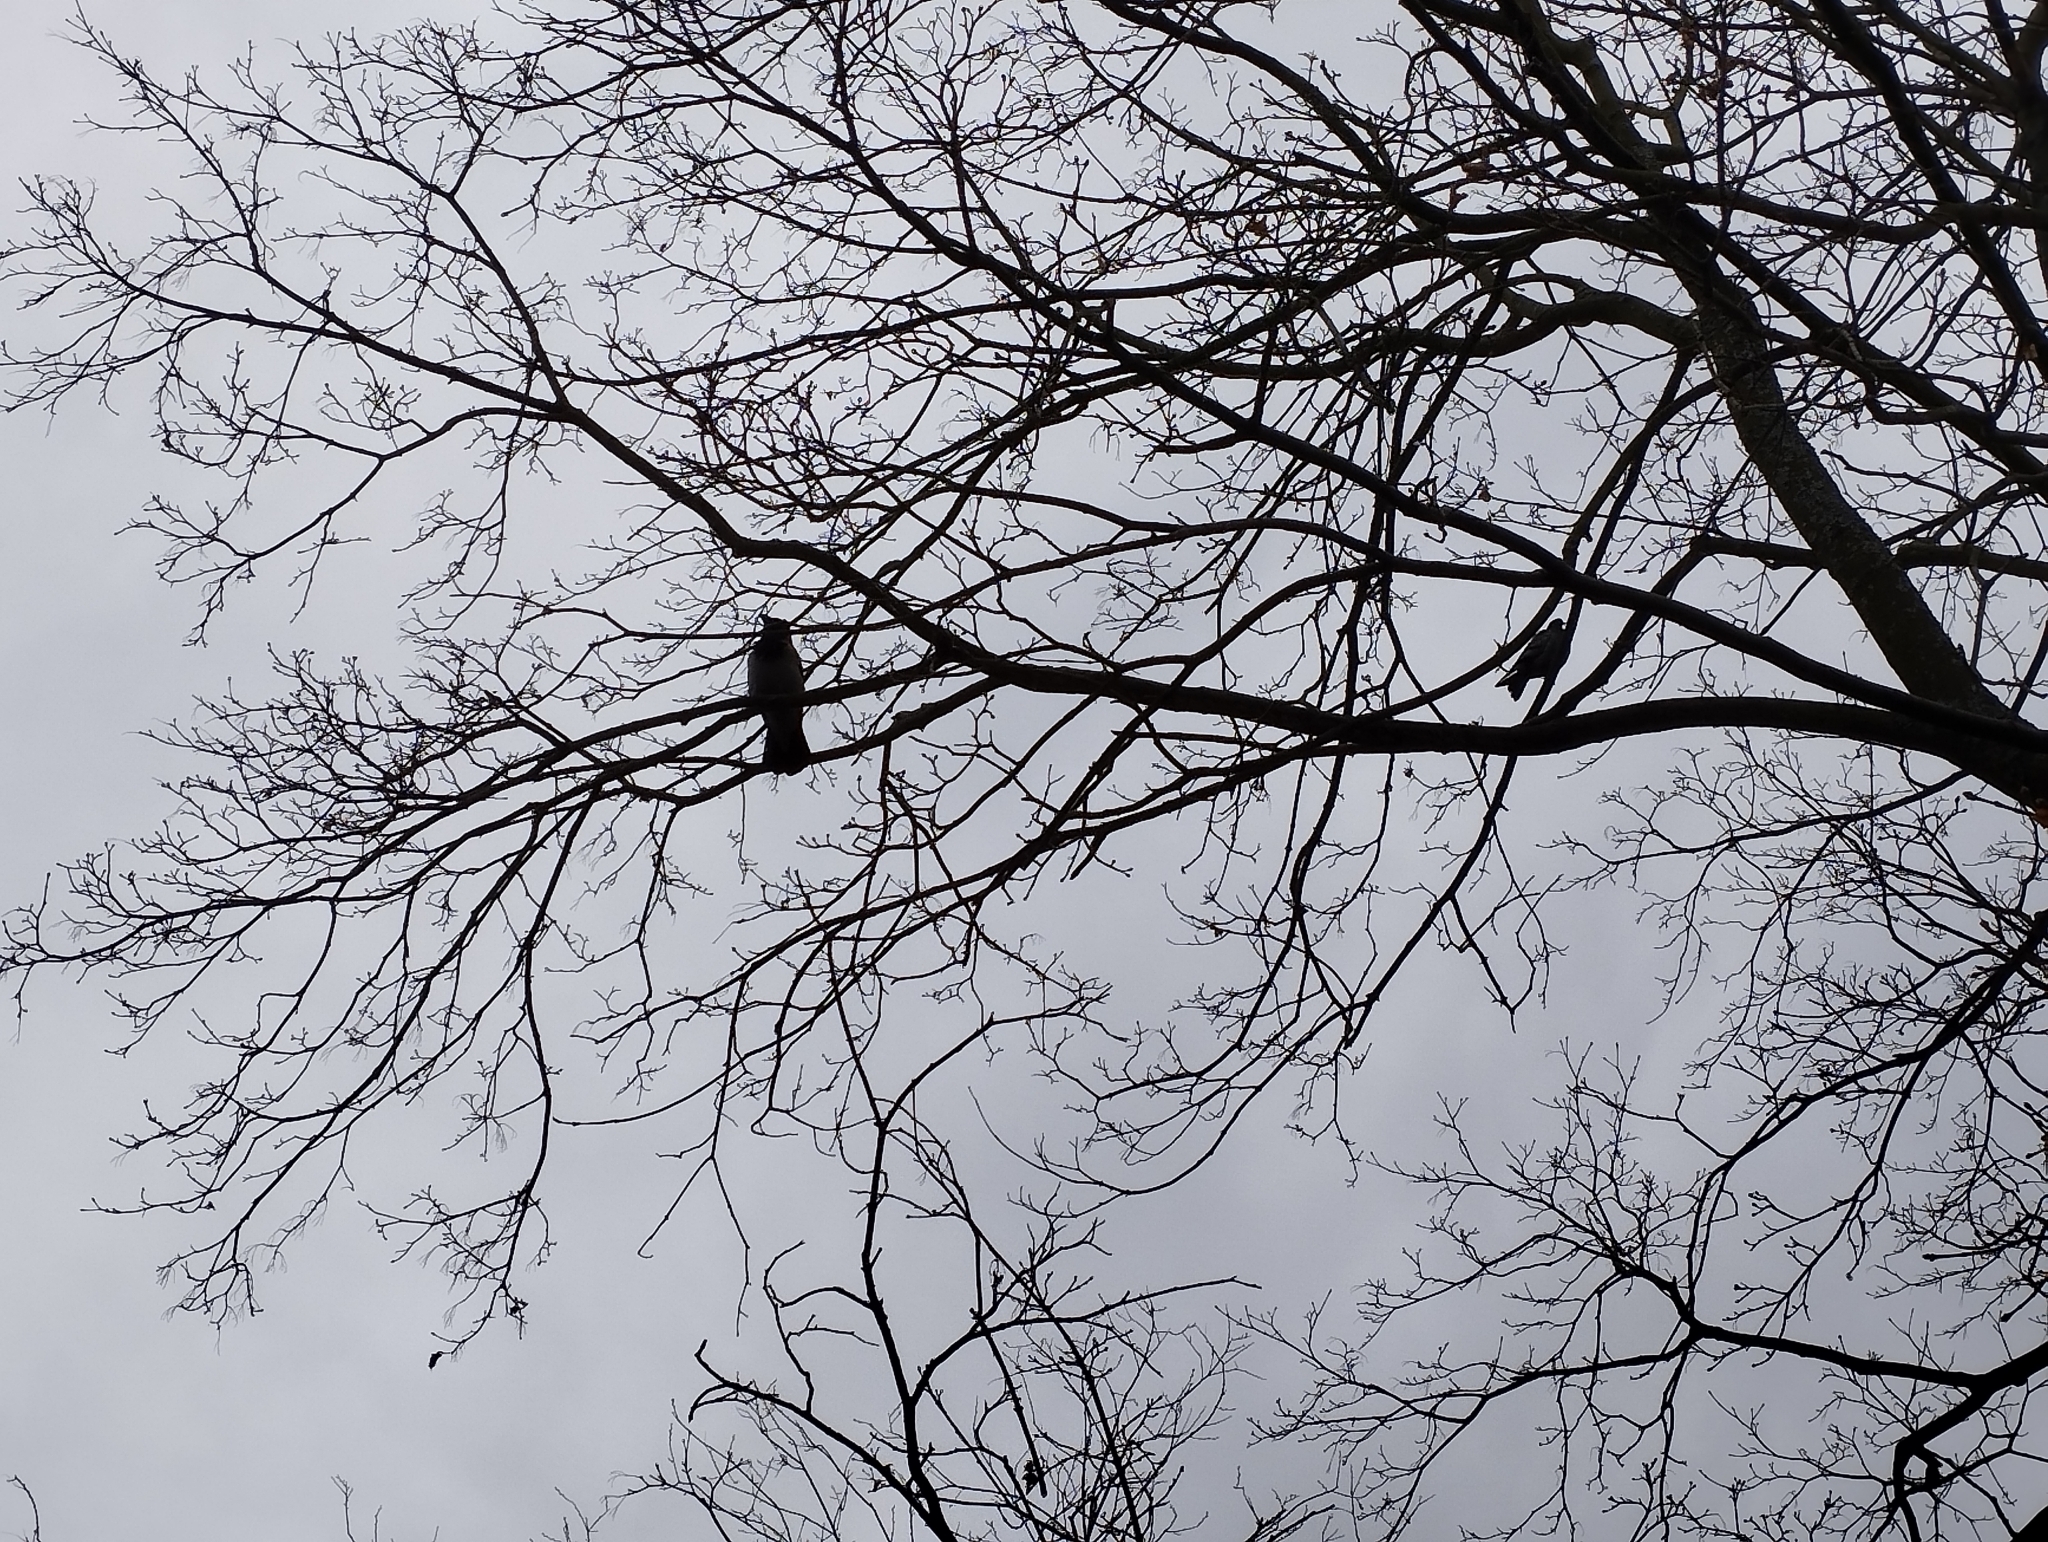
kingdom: Animalia
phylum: Chordata
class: Aves
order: Passeriformes
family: Corvidae
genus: Corvus
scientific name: Corvus cornix
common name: Hooded crow
